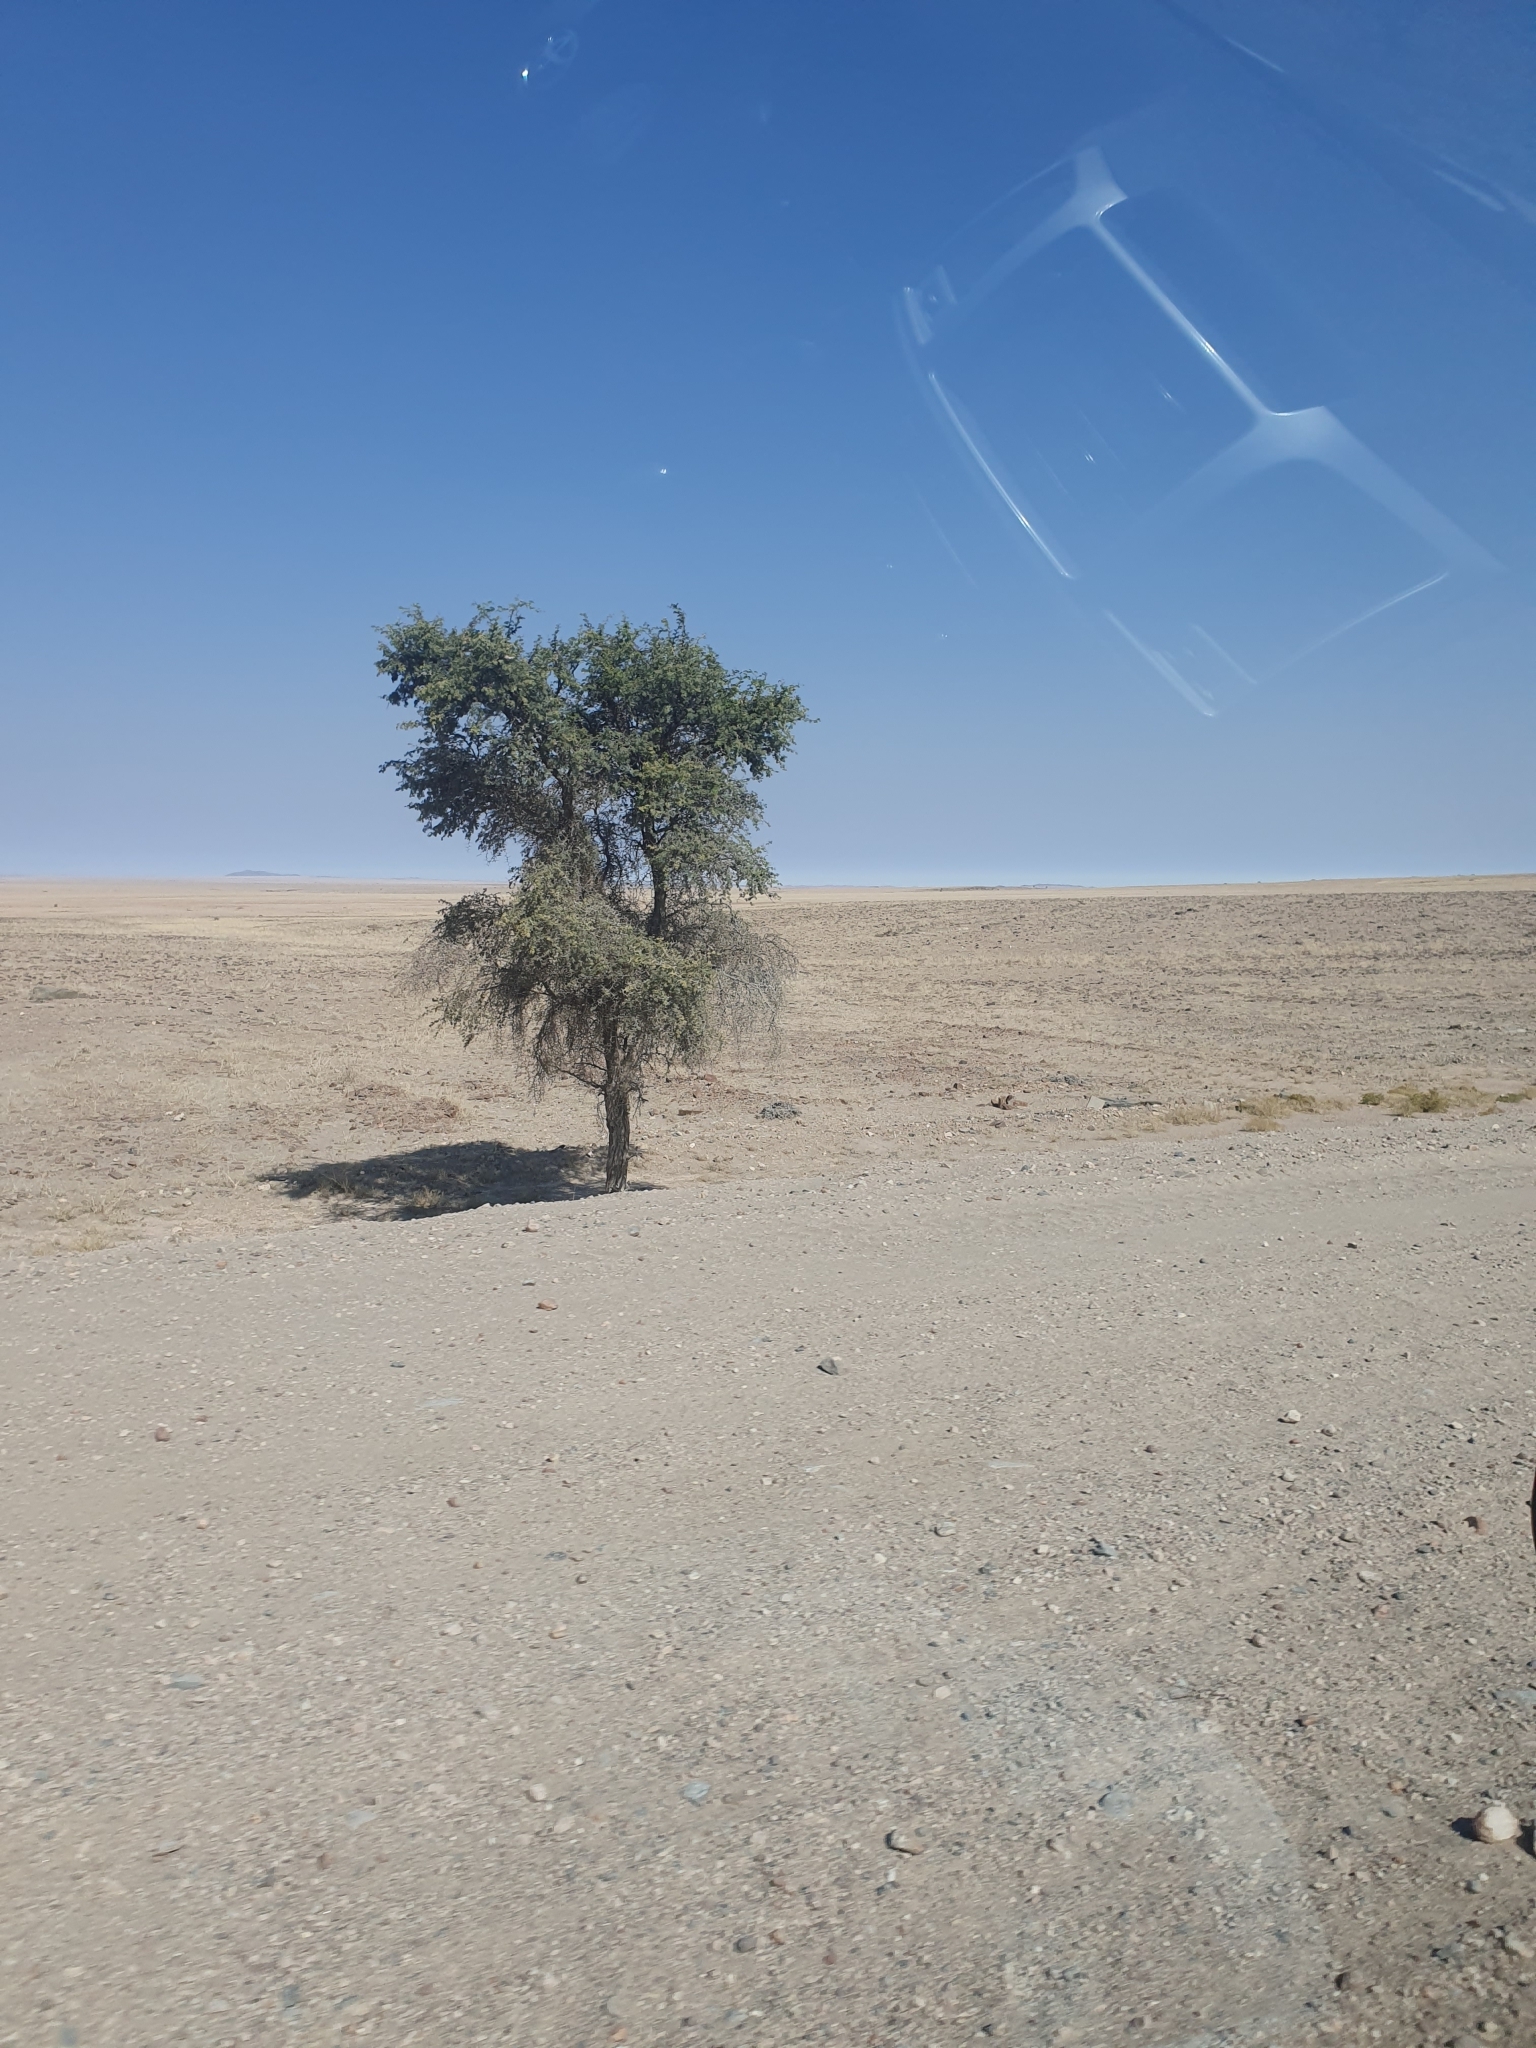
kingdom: Plantae
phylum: Tracheophyta
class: Magnoliopsida
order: Fabales
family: Fabaceae
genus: Vachellia
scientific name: Vachellia erioloba
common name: Camel thorn
